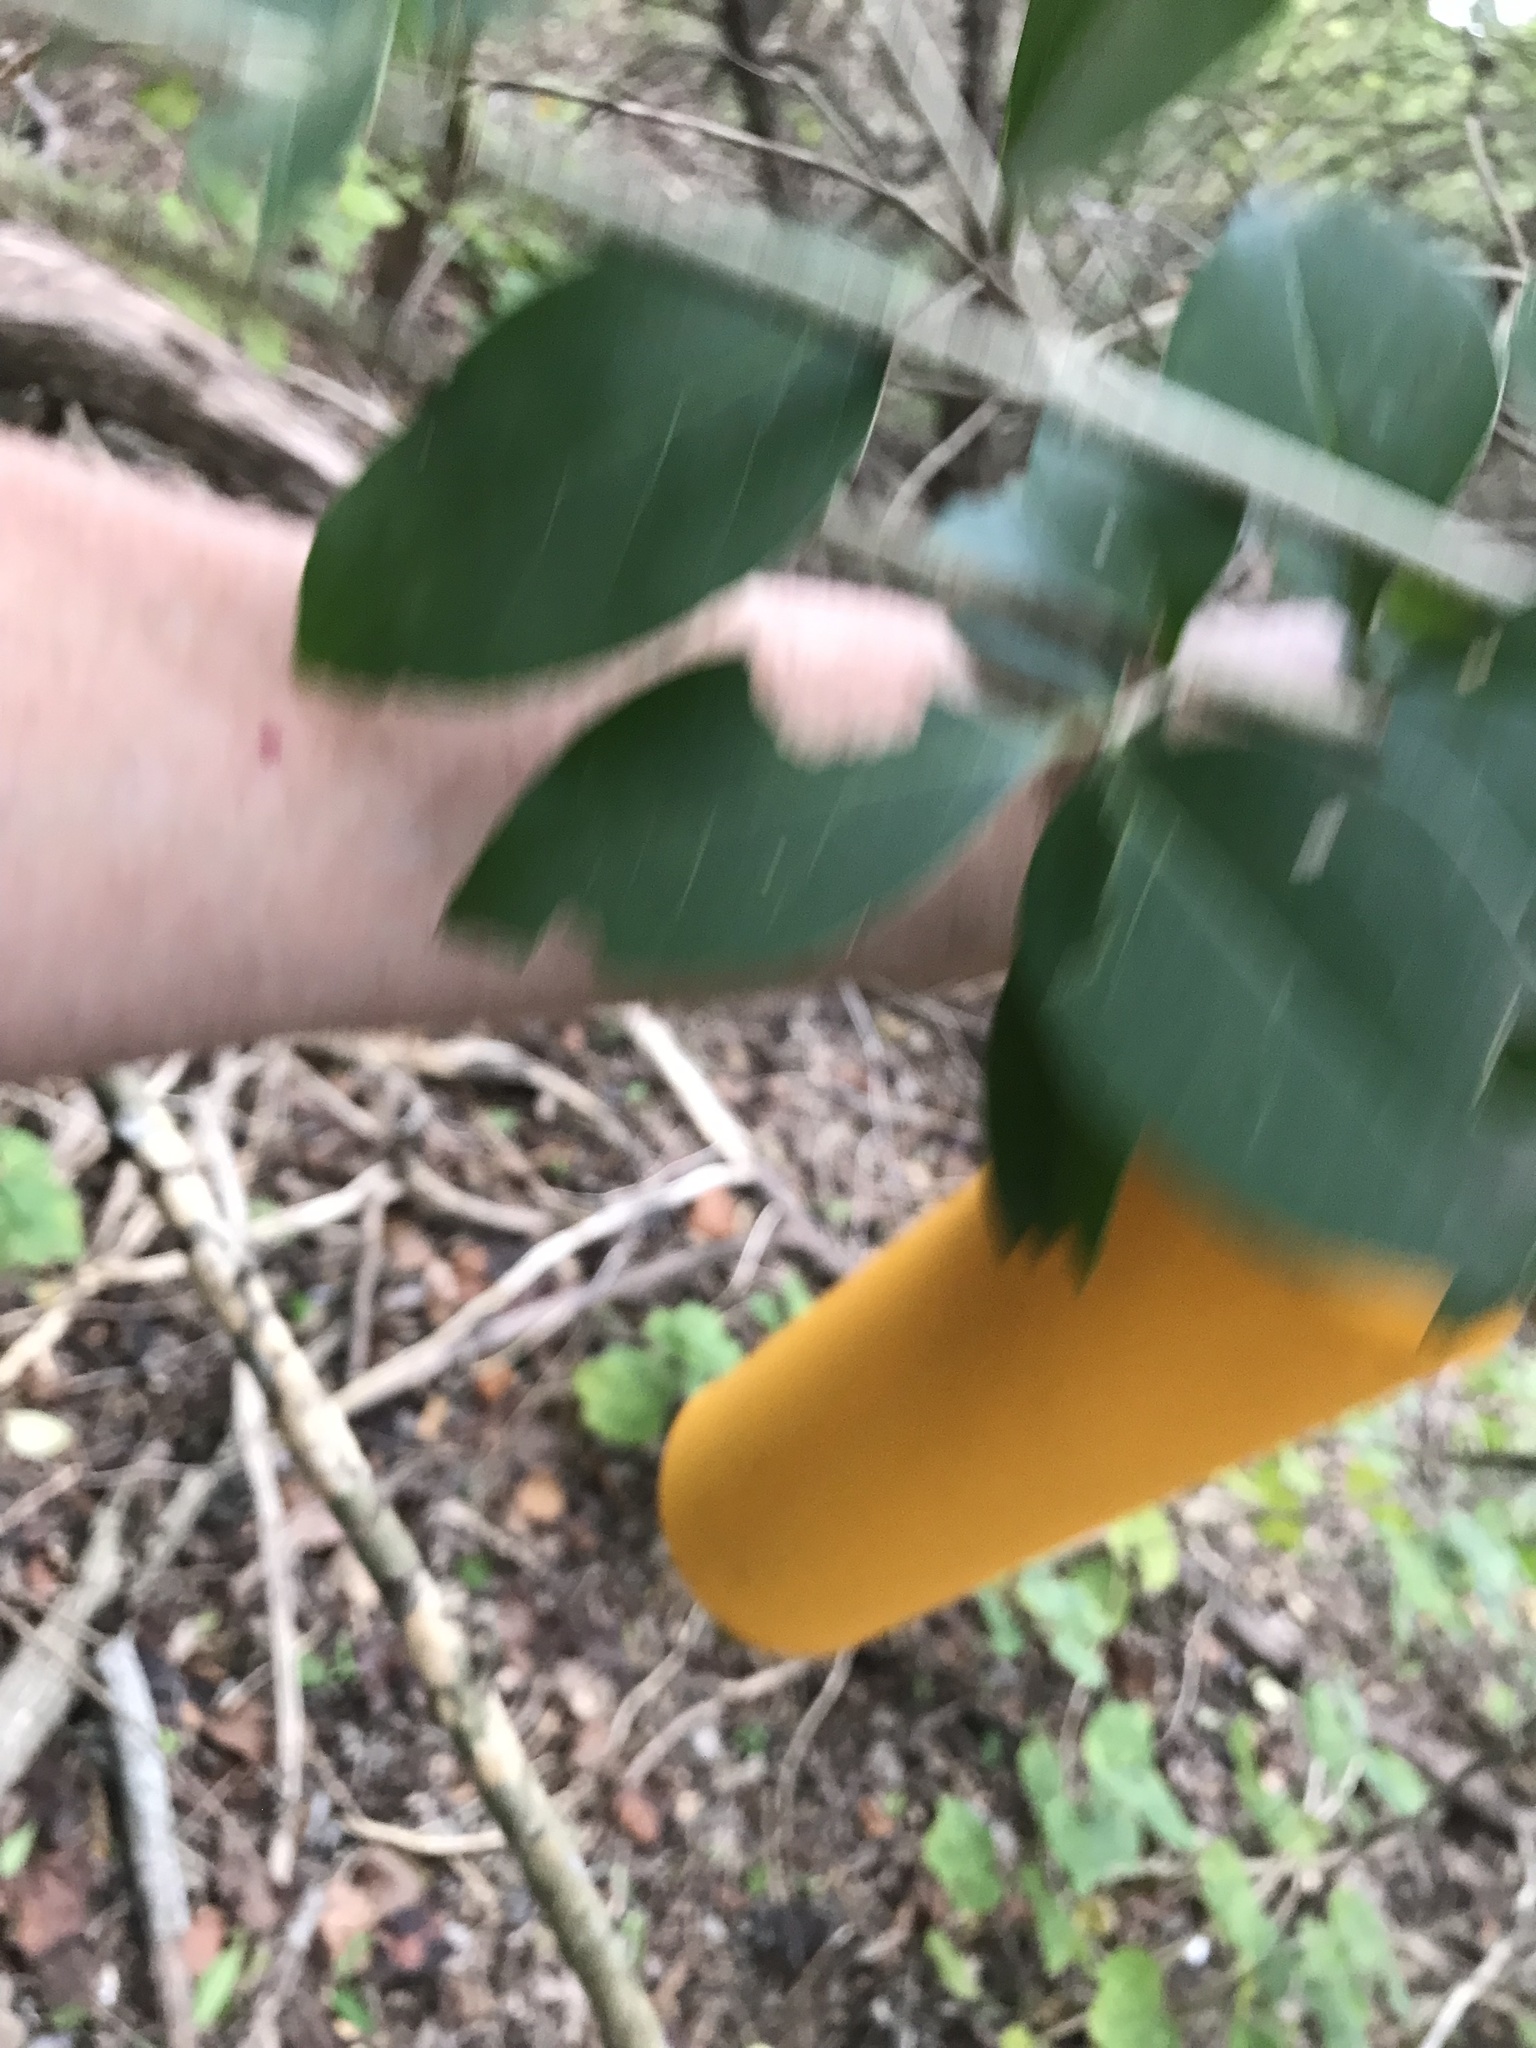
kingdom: Plantae
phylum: Tracheophyta
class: Magnoliopsida
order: Lamiales
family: Oleaceae
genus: Ligustrum
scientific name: Ligustrum lucidum
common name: Glossy privet
